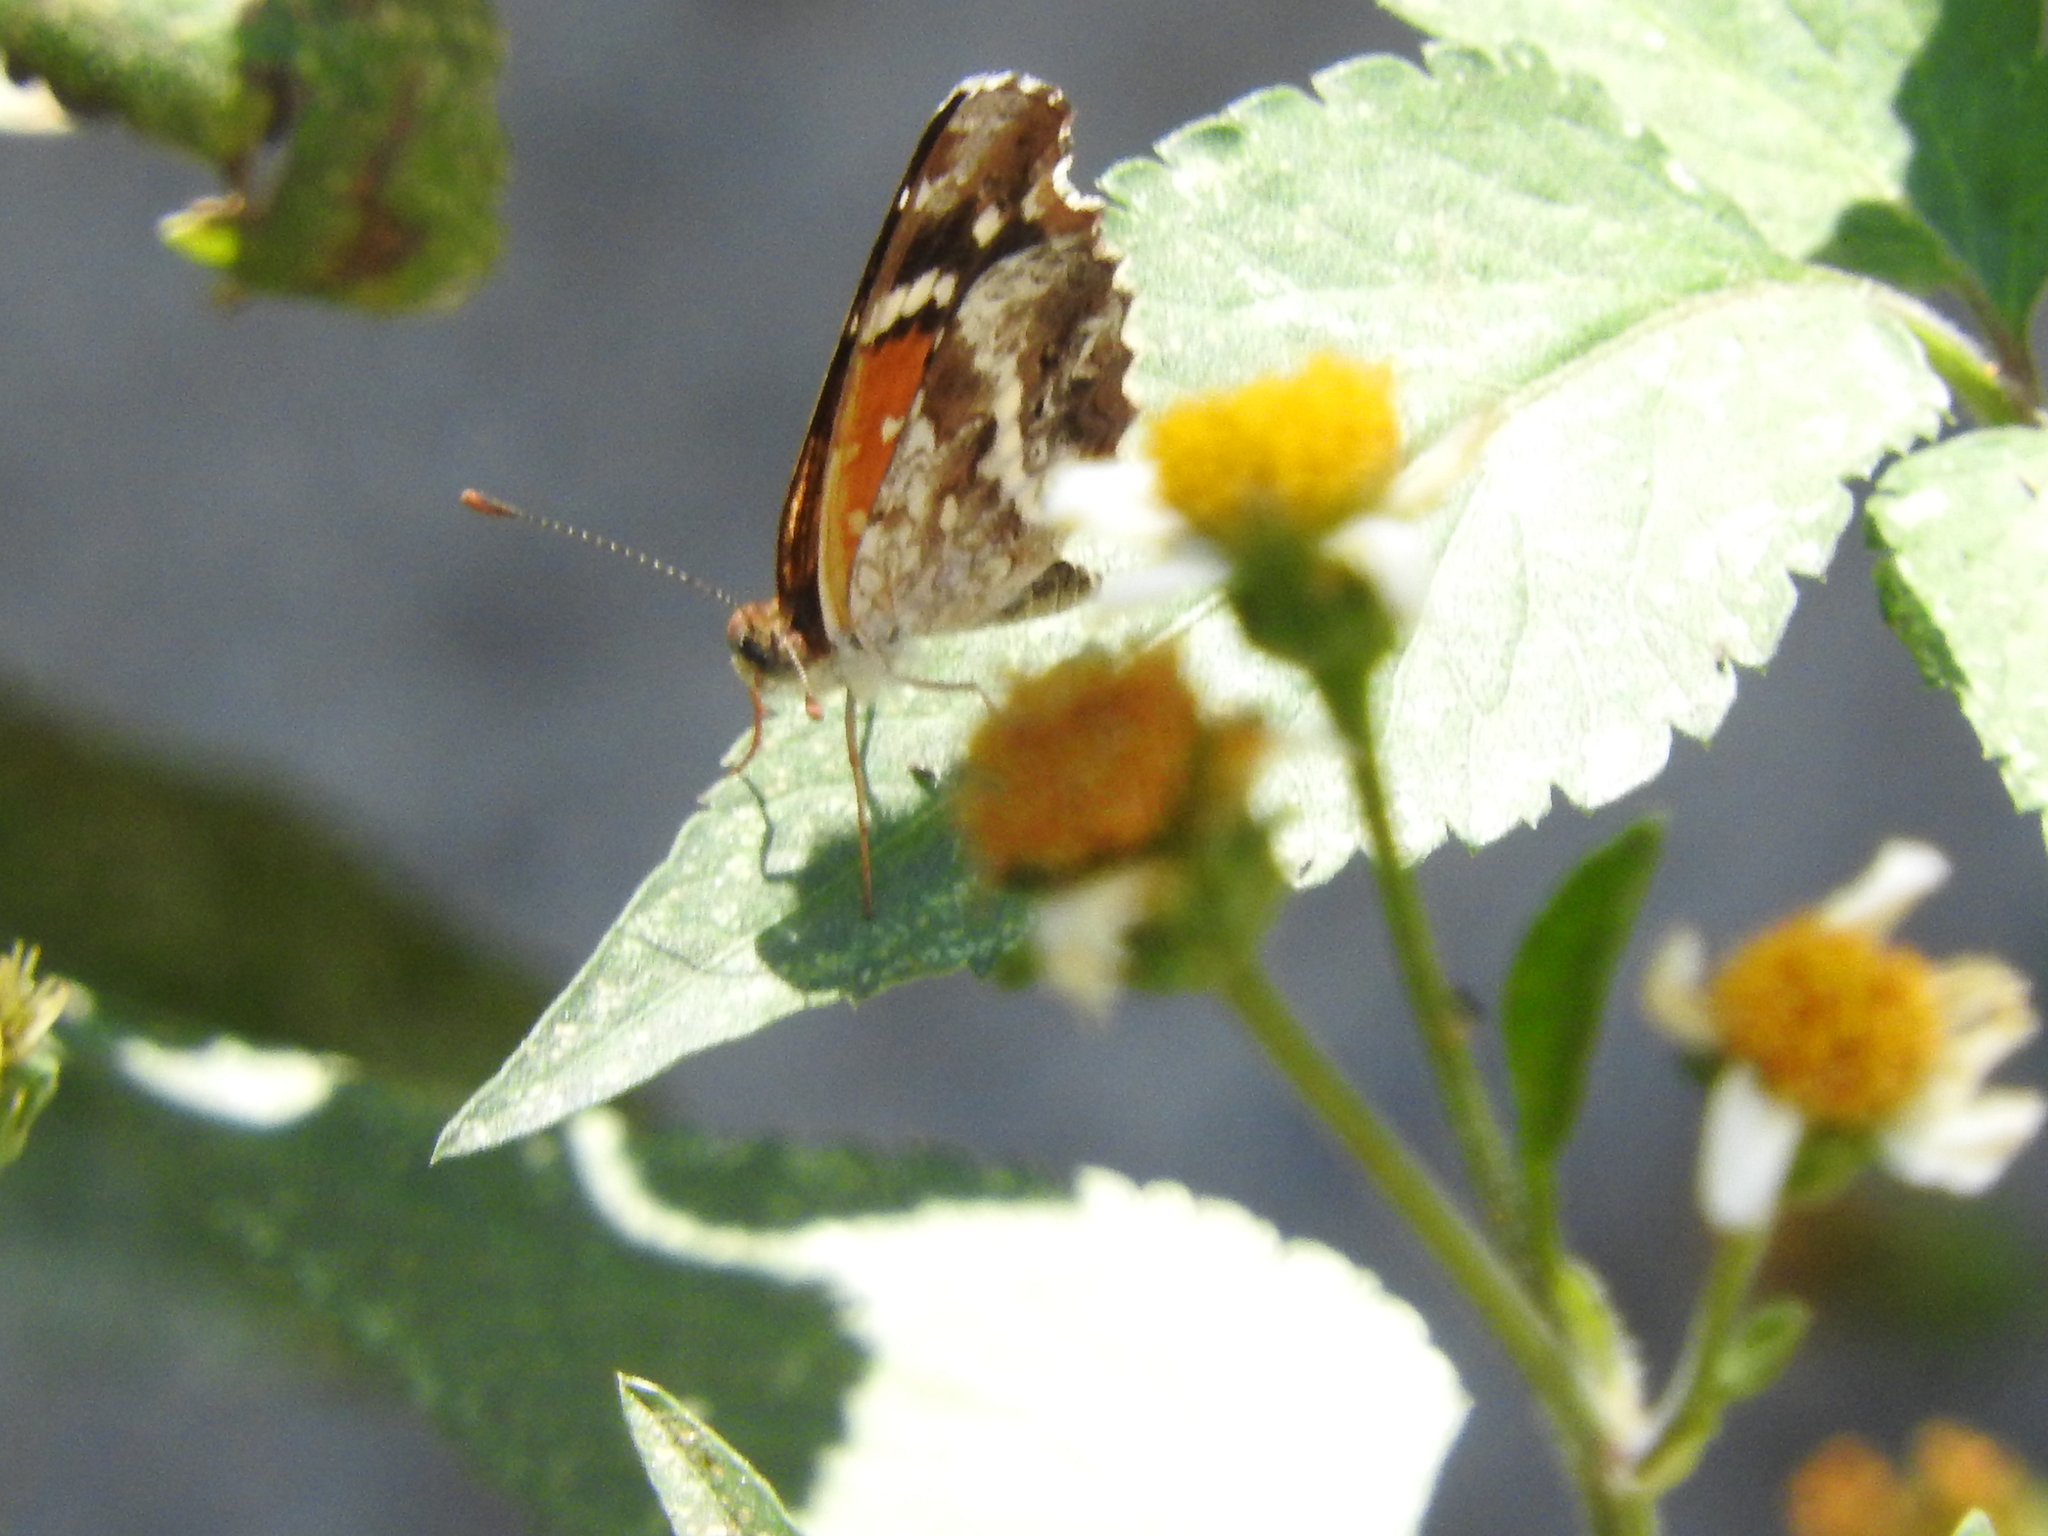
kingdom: Animalia
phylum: Arthropoda
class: Insecta
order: Lepidoptera
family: Nymphalidae
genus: Anthanassa
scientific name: Anthanassa texana
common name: Texan crescent
